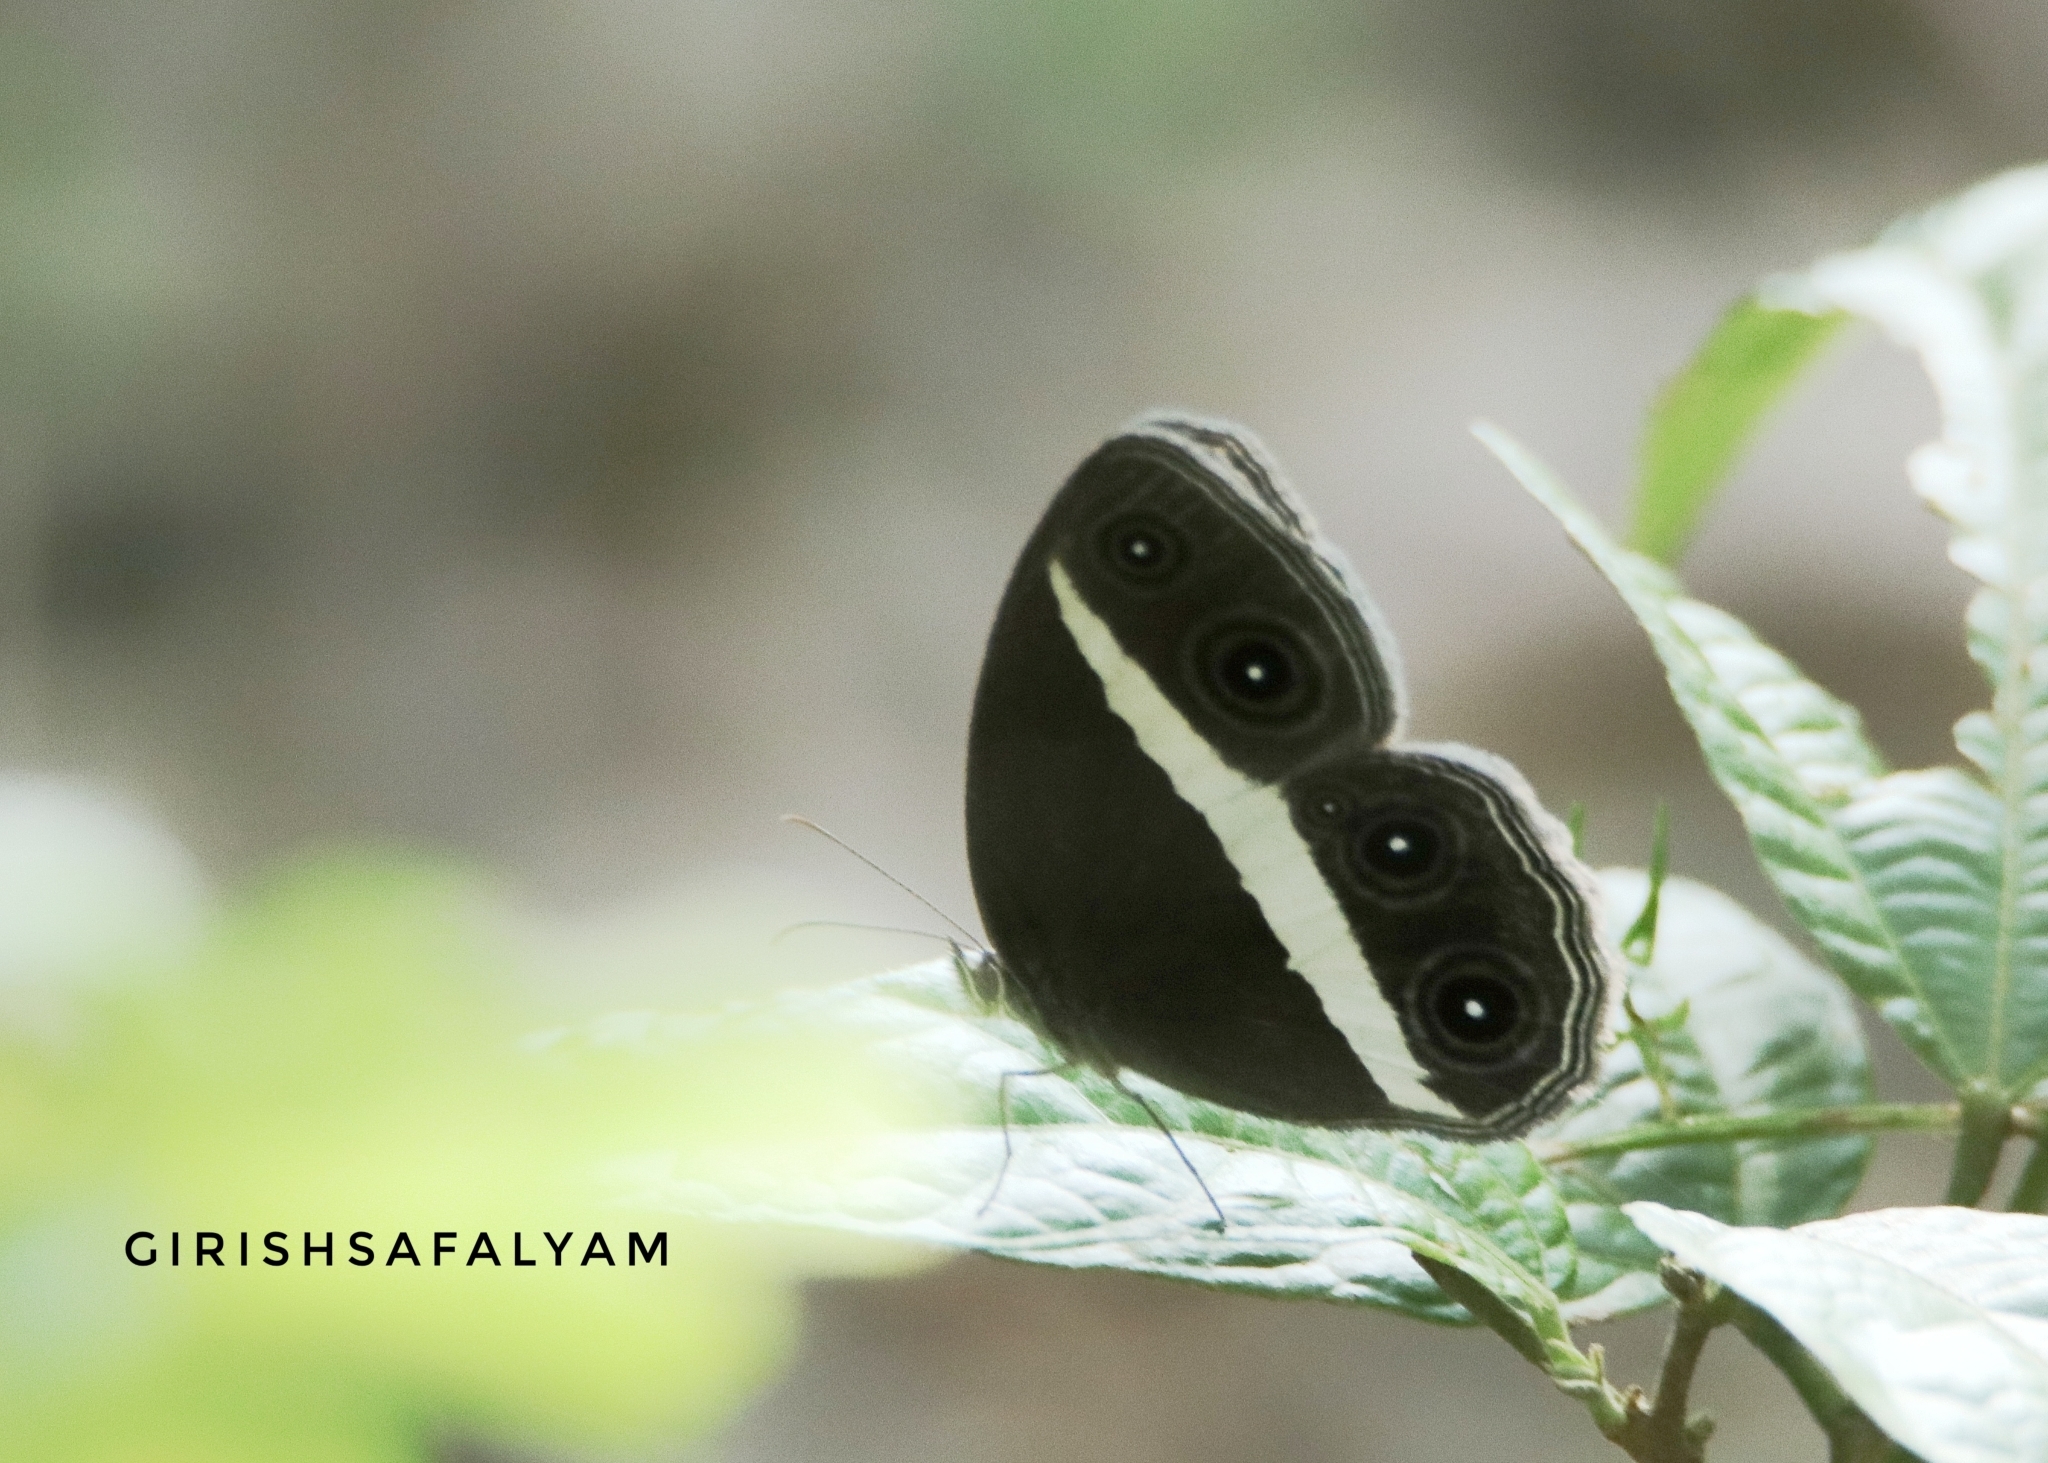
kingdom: Animalia
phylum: Arthropoda
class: Insecta
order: Lepidoptera
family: Nymphalidae
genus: Orsotriaena
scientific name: Orsotriaena medus
